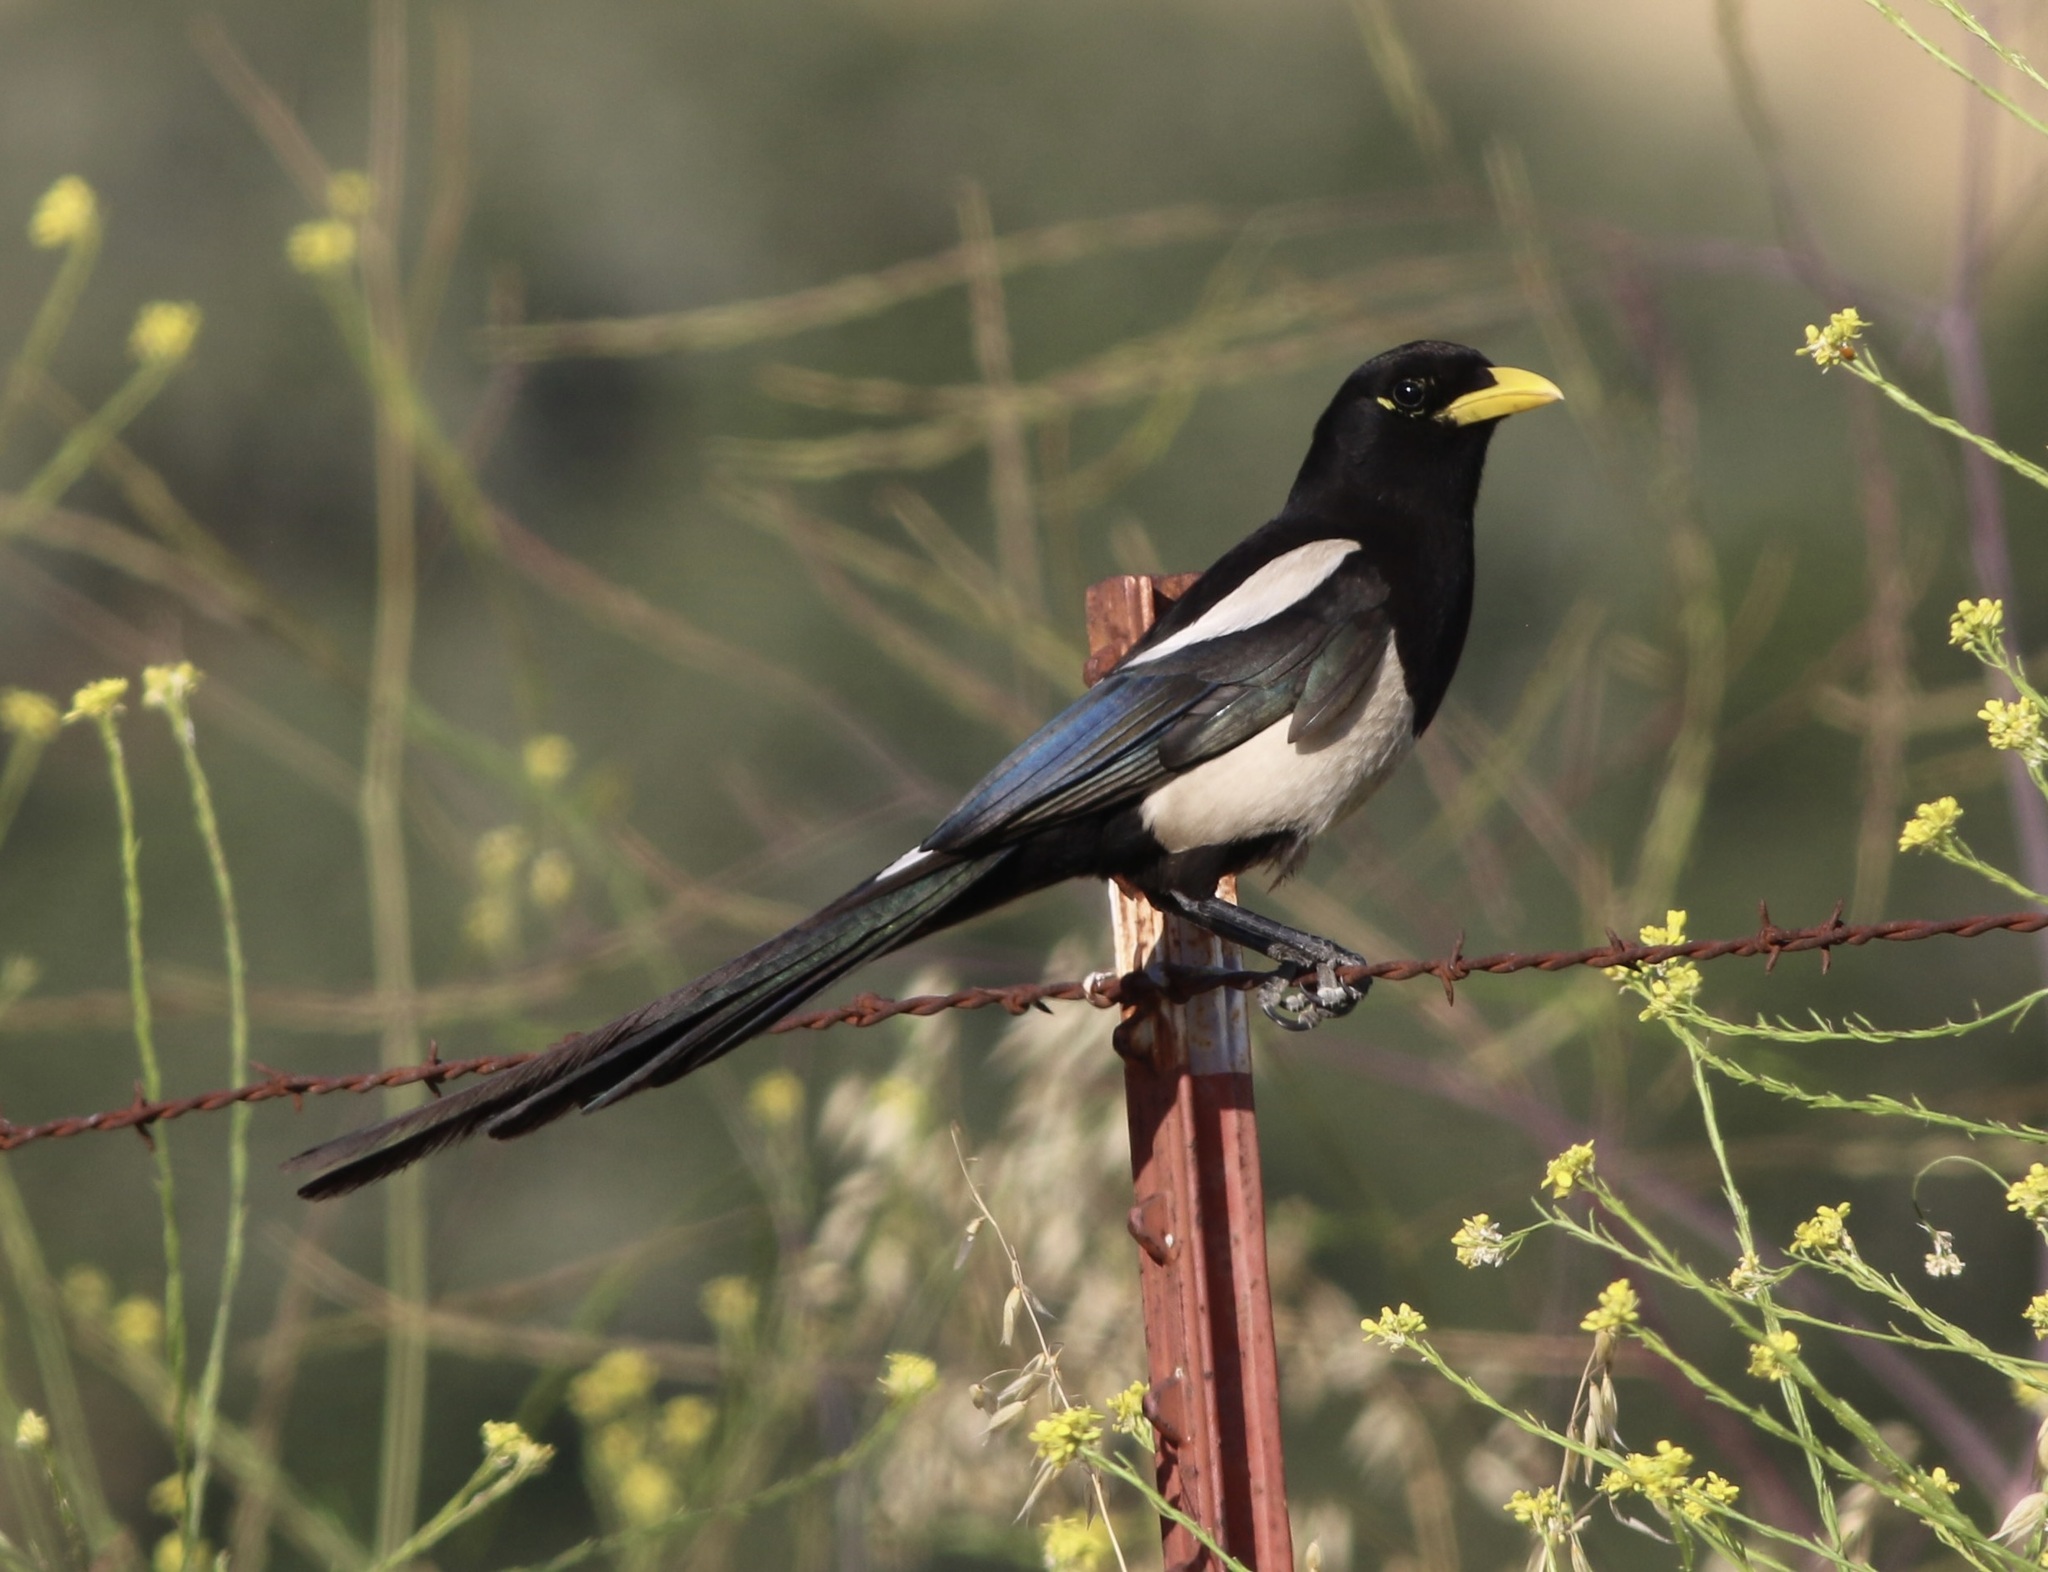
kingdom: Animalia
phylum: Chordata
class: Aves
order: Passeriformes
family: Corvidae
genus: Pica
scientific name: Pica nuttalli
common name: Yellow-billed magpie
